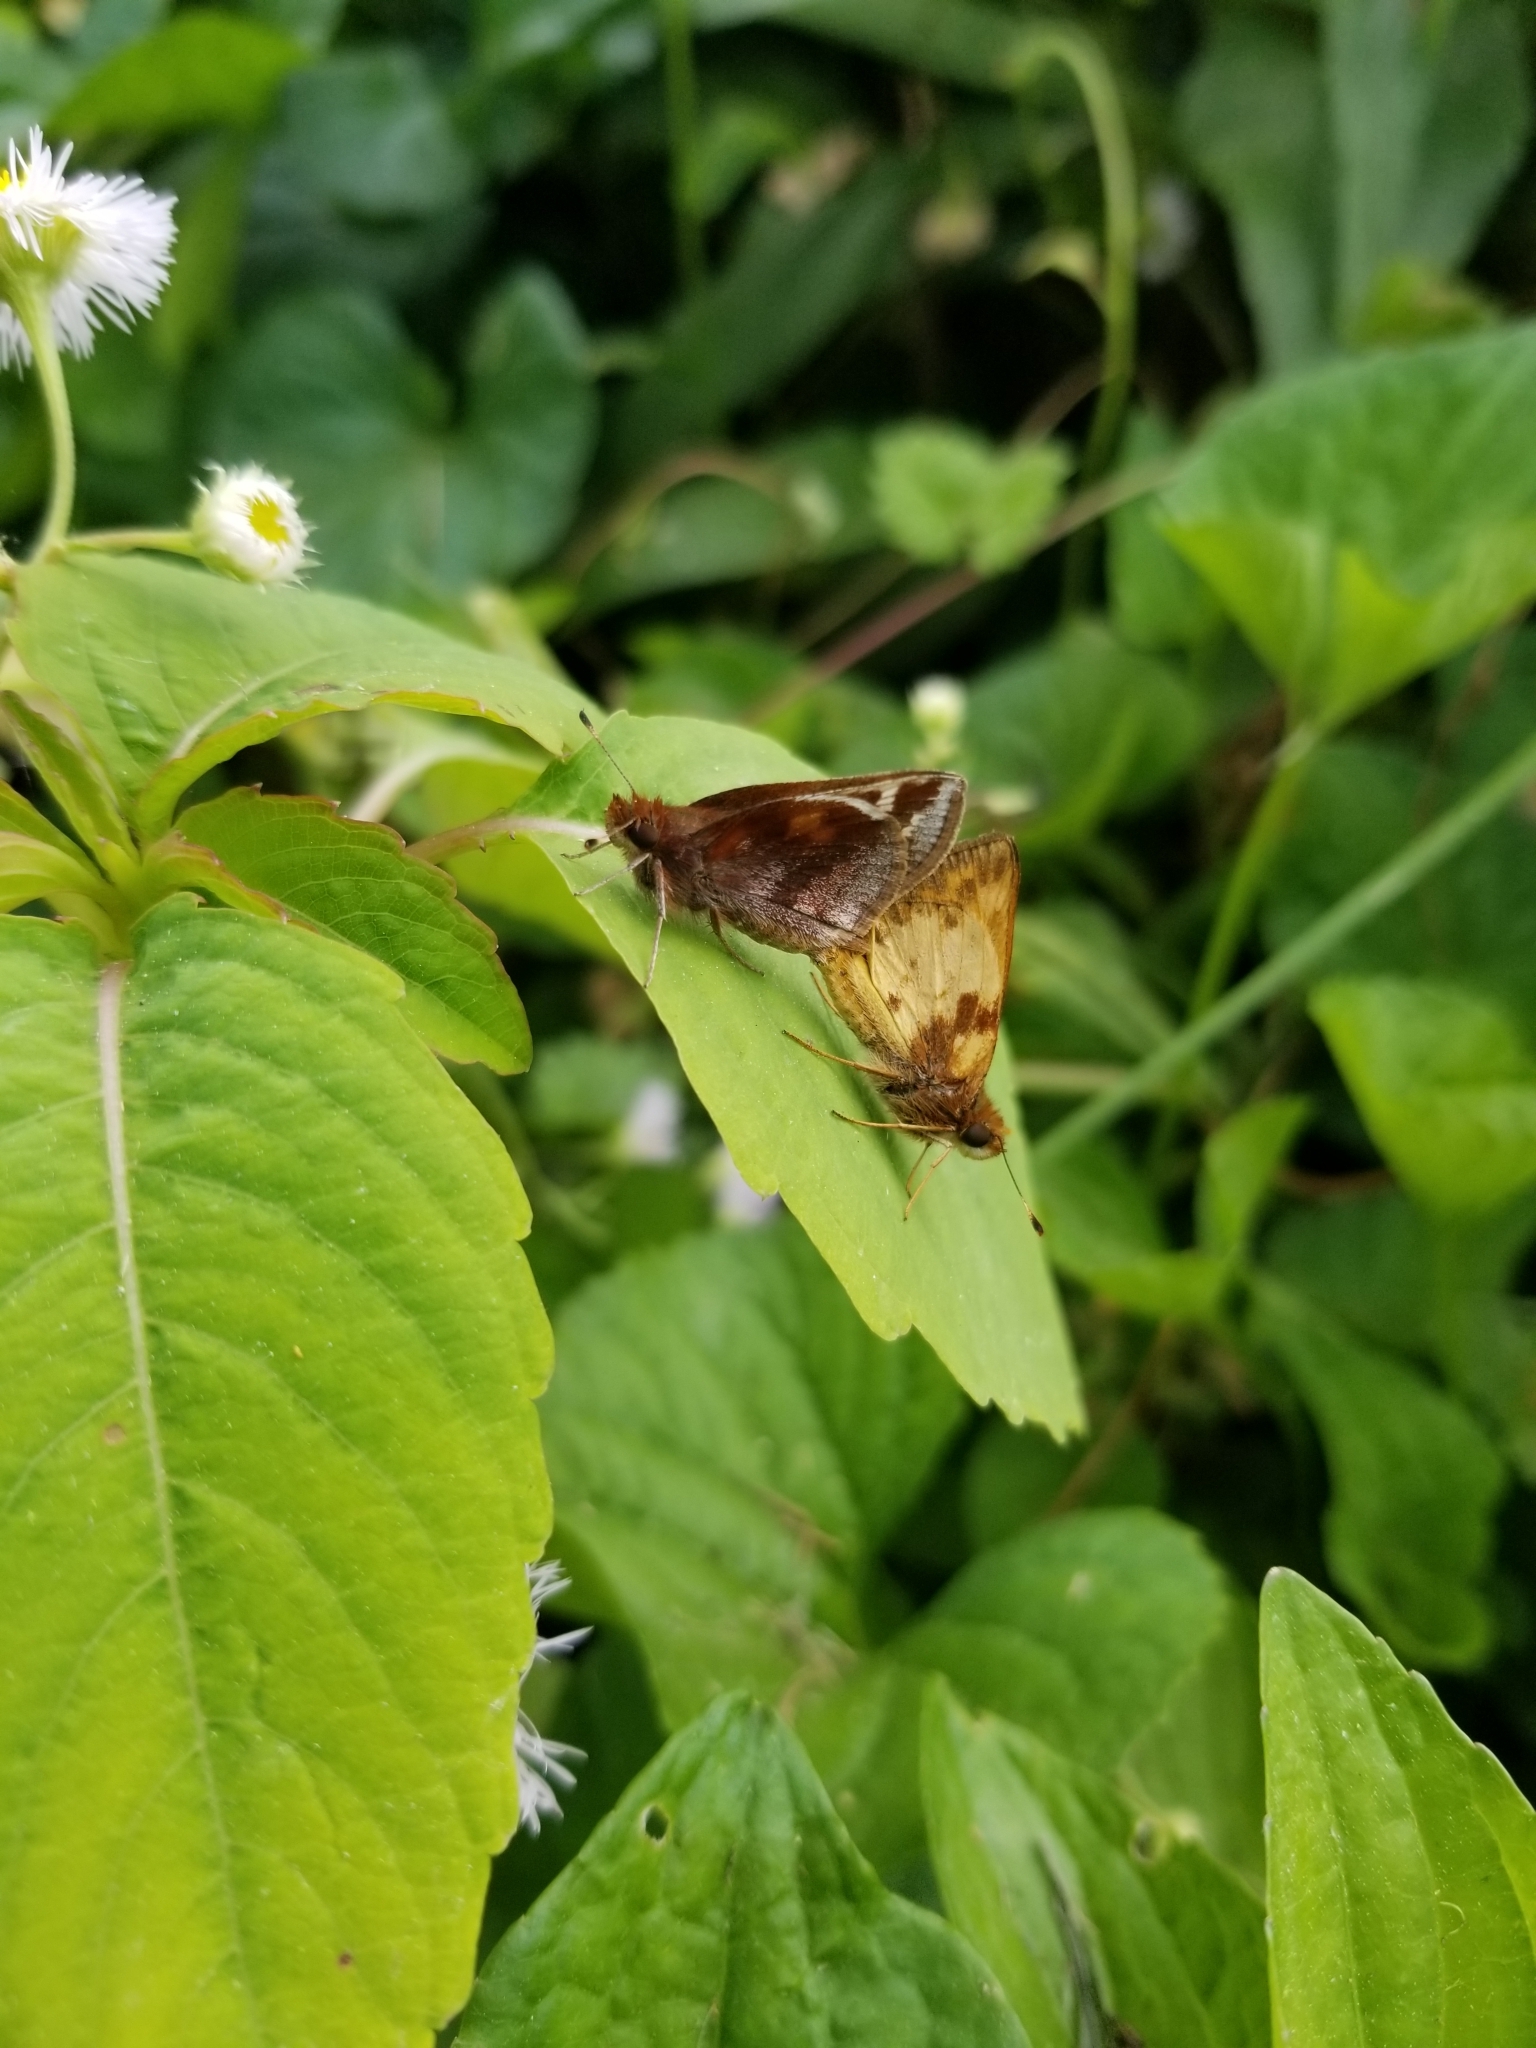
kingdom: Animalia
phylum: Arthropoda
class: Insecta
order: Lepidoptera
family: Hesperiidae
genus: Lon
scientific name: Lon zabulon
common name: Zabulon skipper
